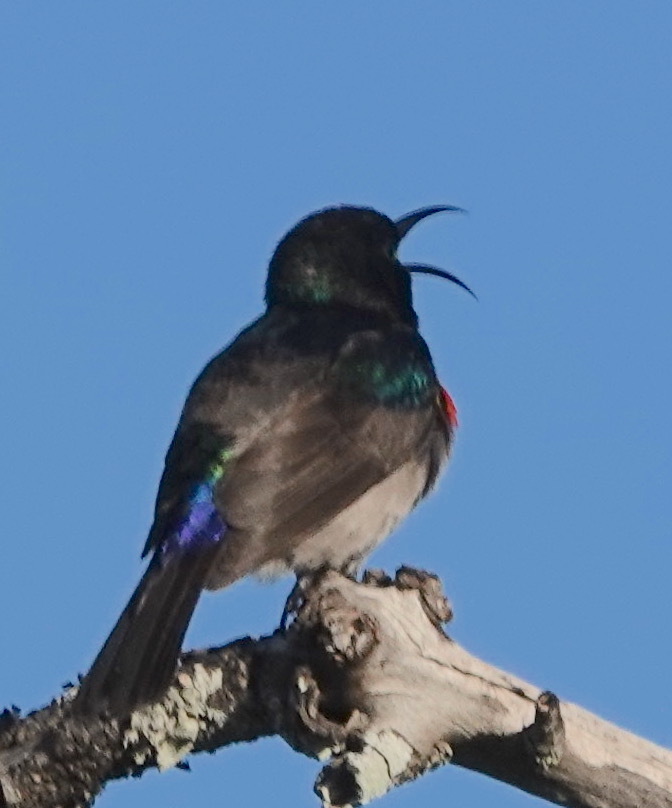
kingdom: Animalia
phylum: Chordata
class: Aves
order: Passeriformes
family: Nectariniidae
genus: Cinnyris
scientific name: Cinnyris chalybeus
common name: Southern double-collared sunbird
